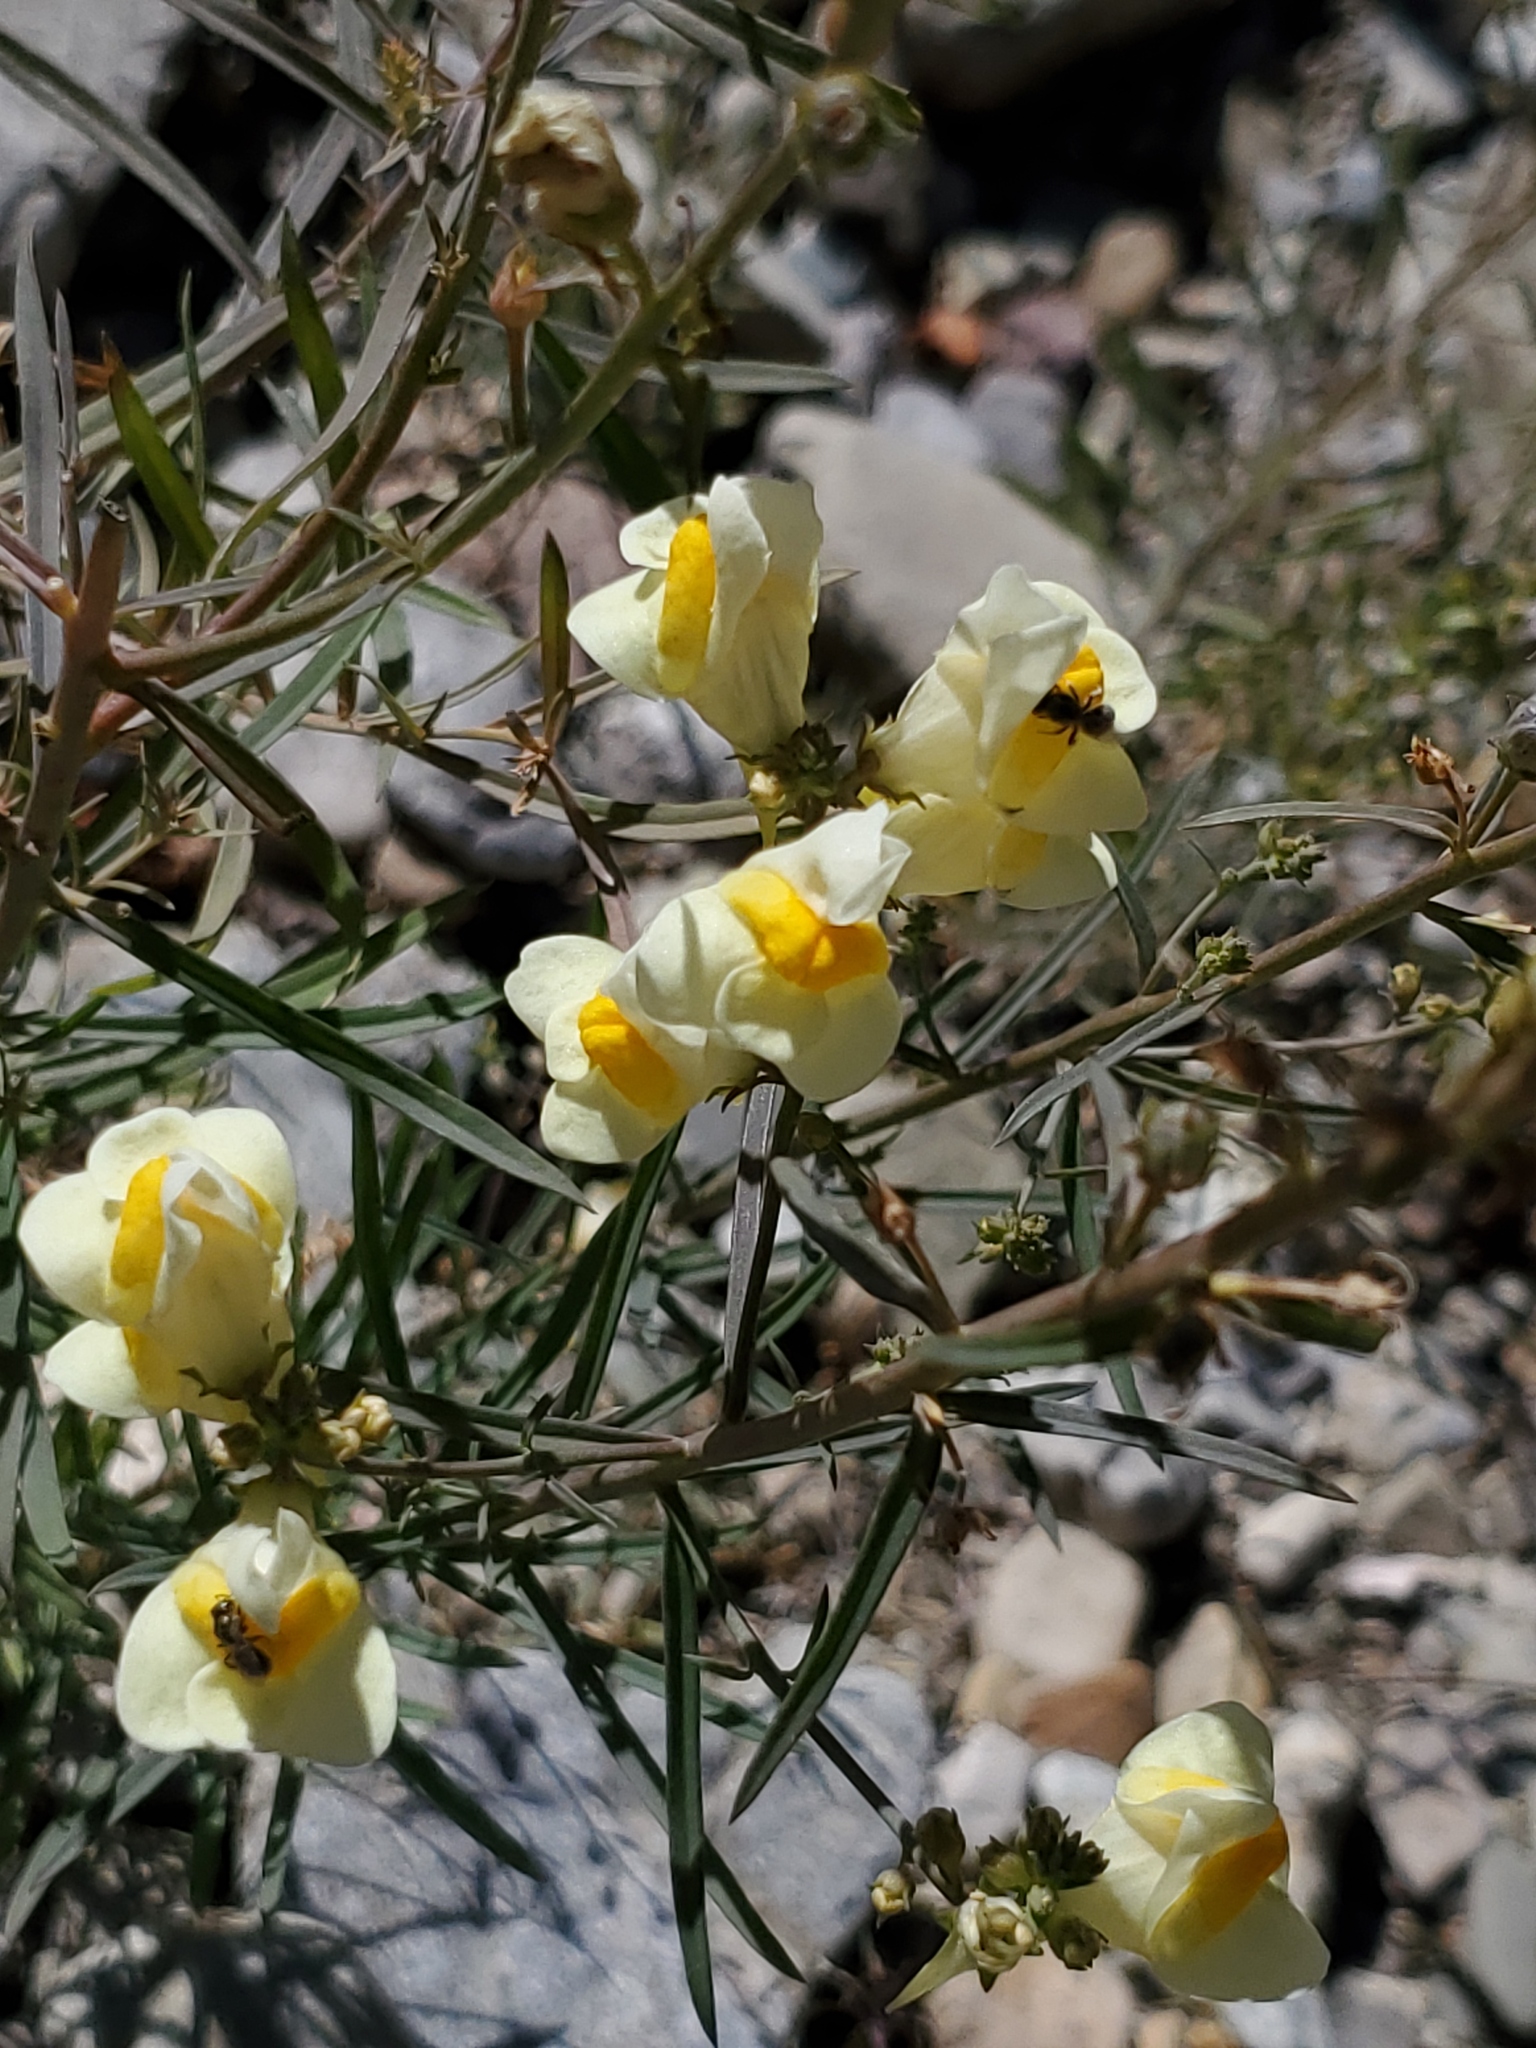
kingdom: Plantae
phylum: Tracheophyta
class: Magnoliopsida
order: Lamiales
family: Plantaginaceae
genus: Linaria
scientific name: Linaria vulgaris
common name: Butter and eggs
